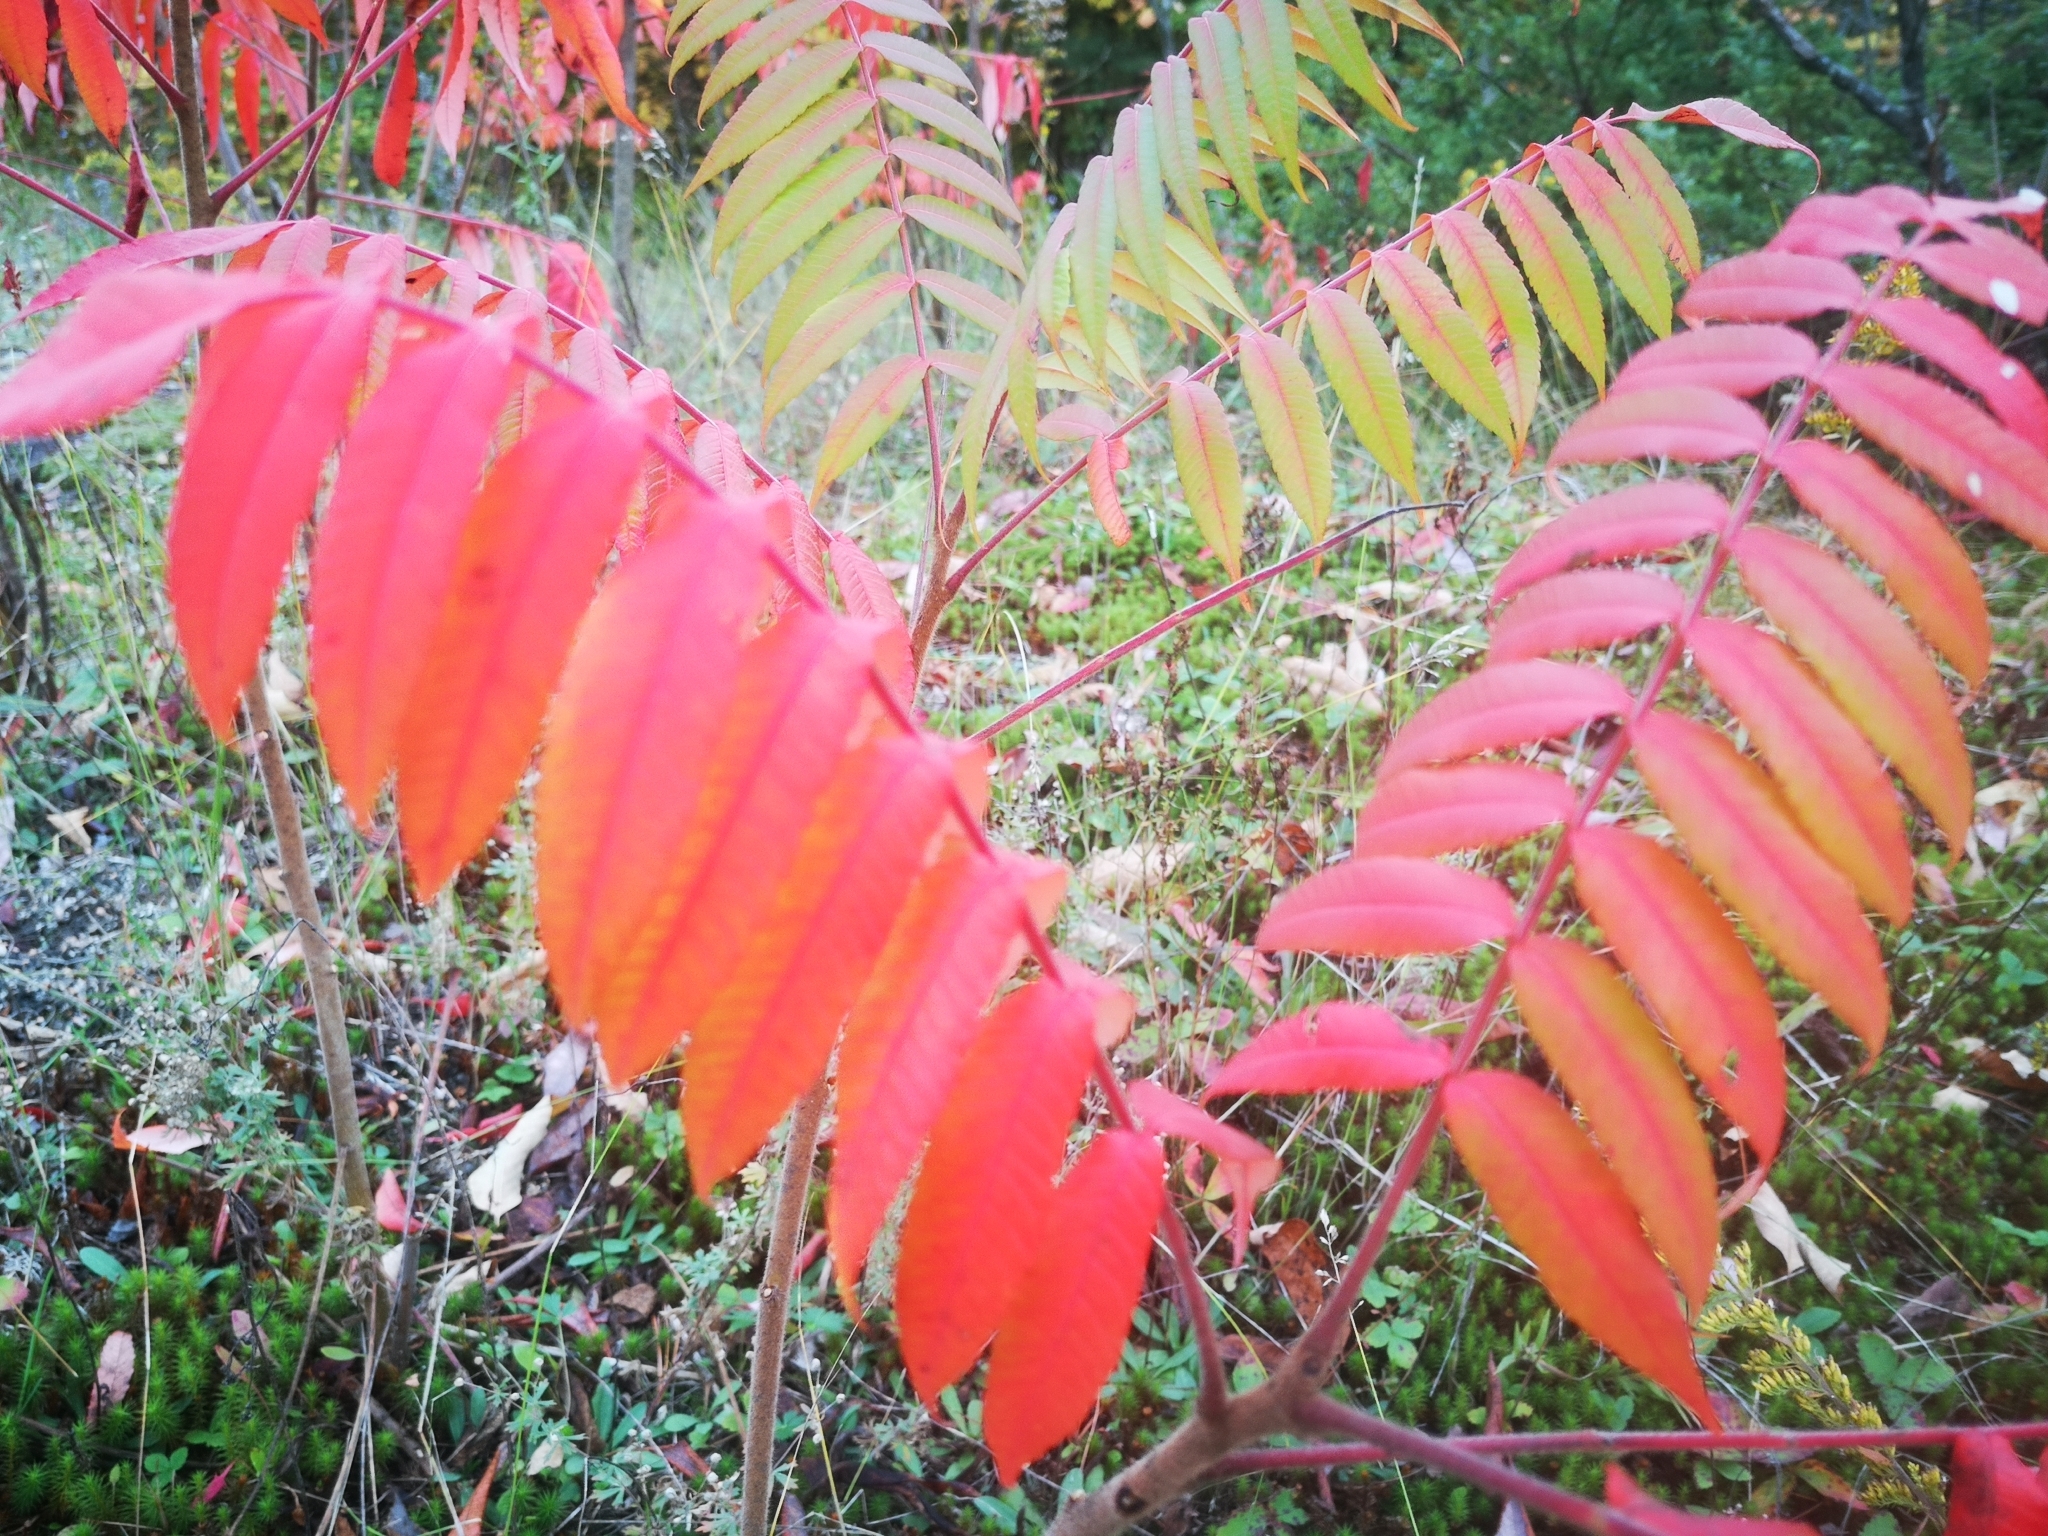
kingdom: Plantae
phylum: Tracheophyta
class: Magnoliopsida
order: Sapindales
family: Anacardiaceae
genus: Rhus
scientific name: Rhus typhina
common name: Staghorn sumac
